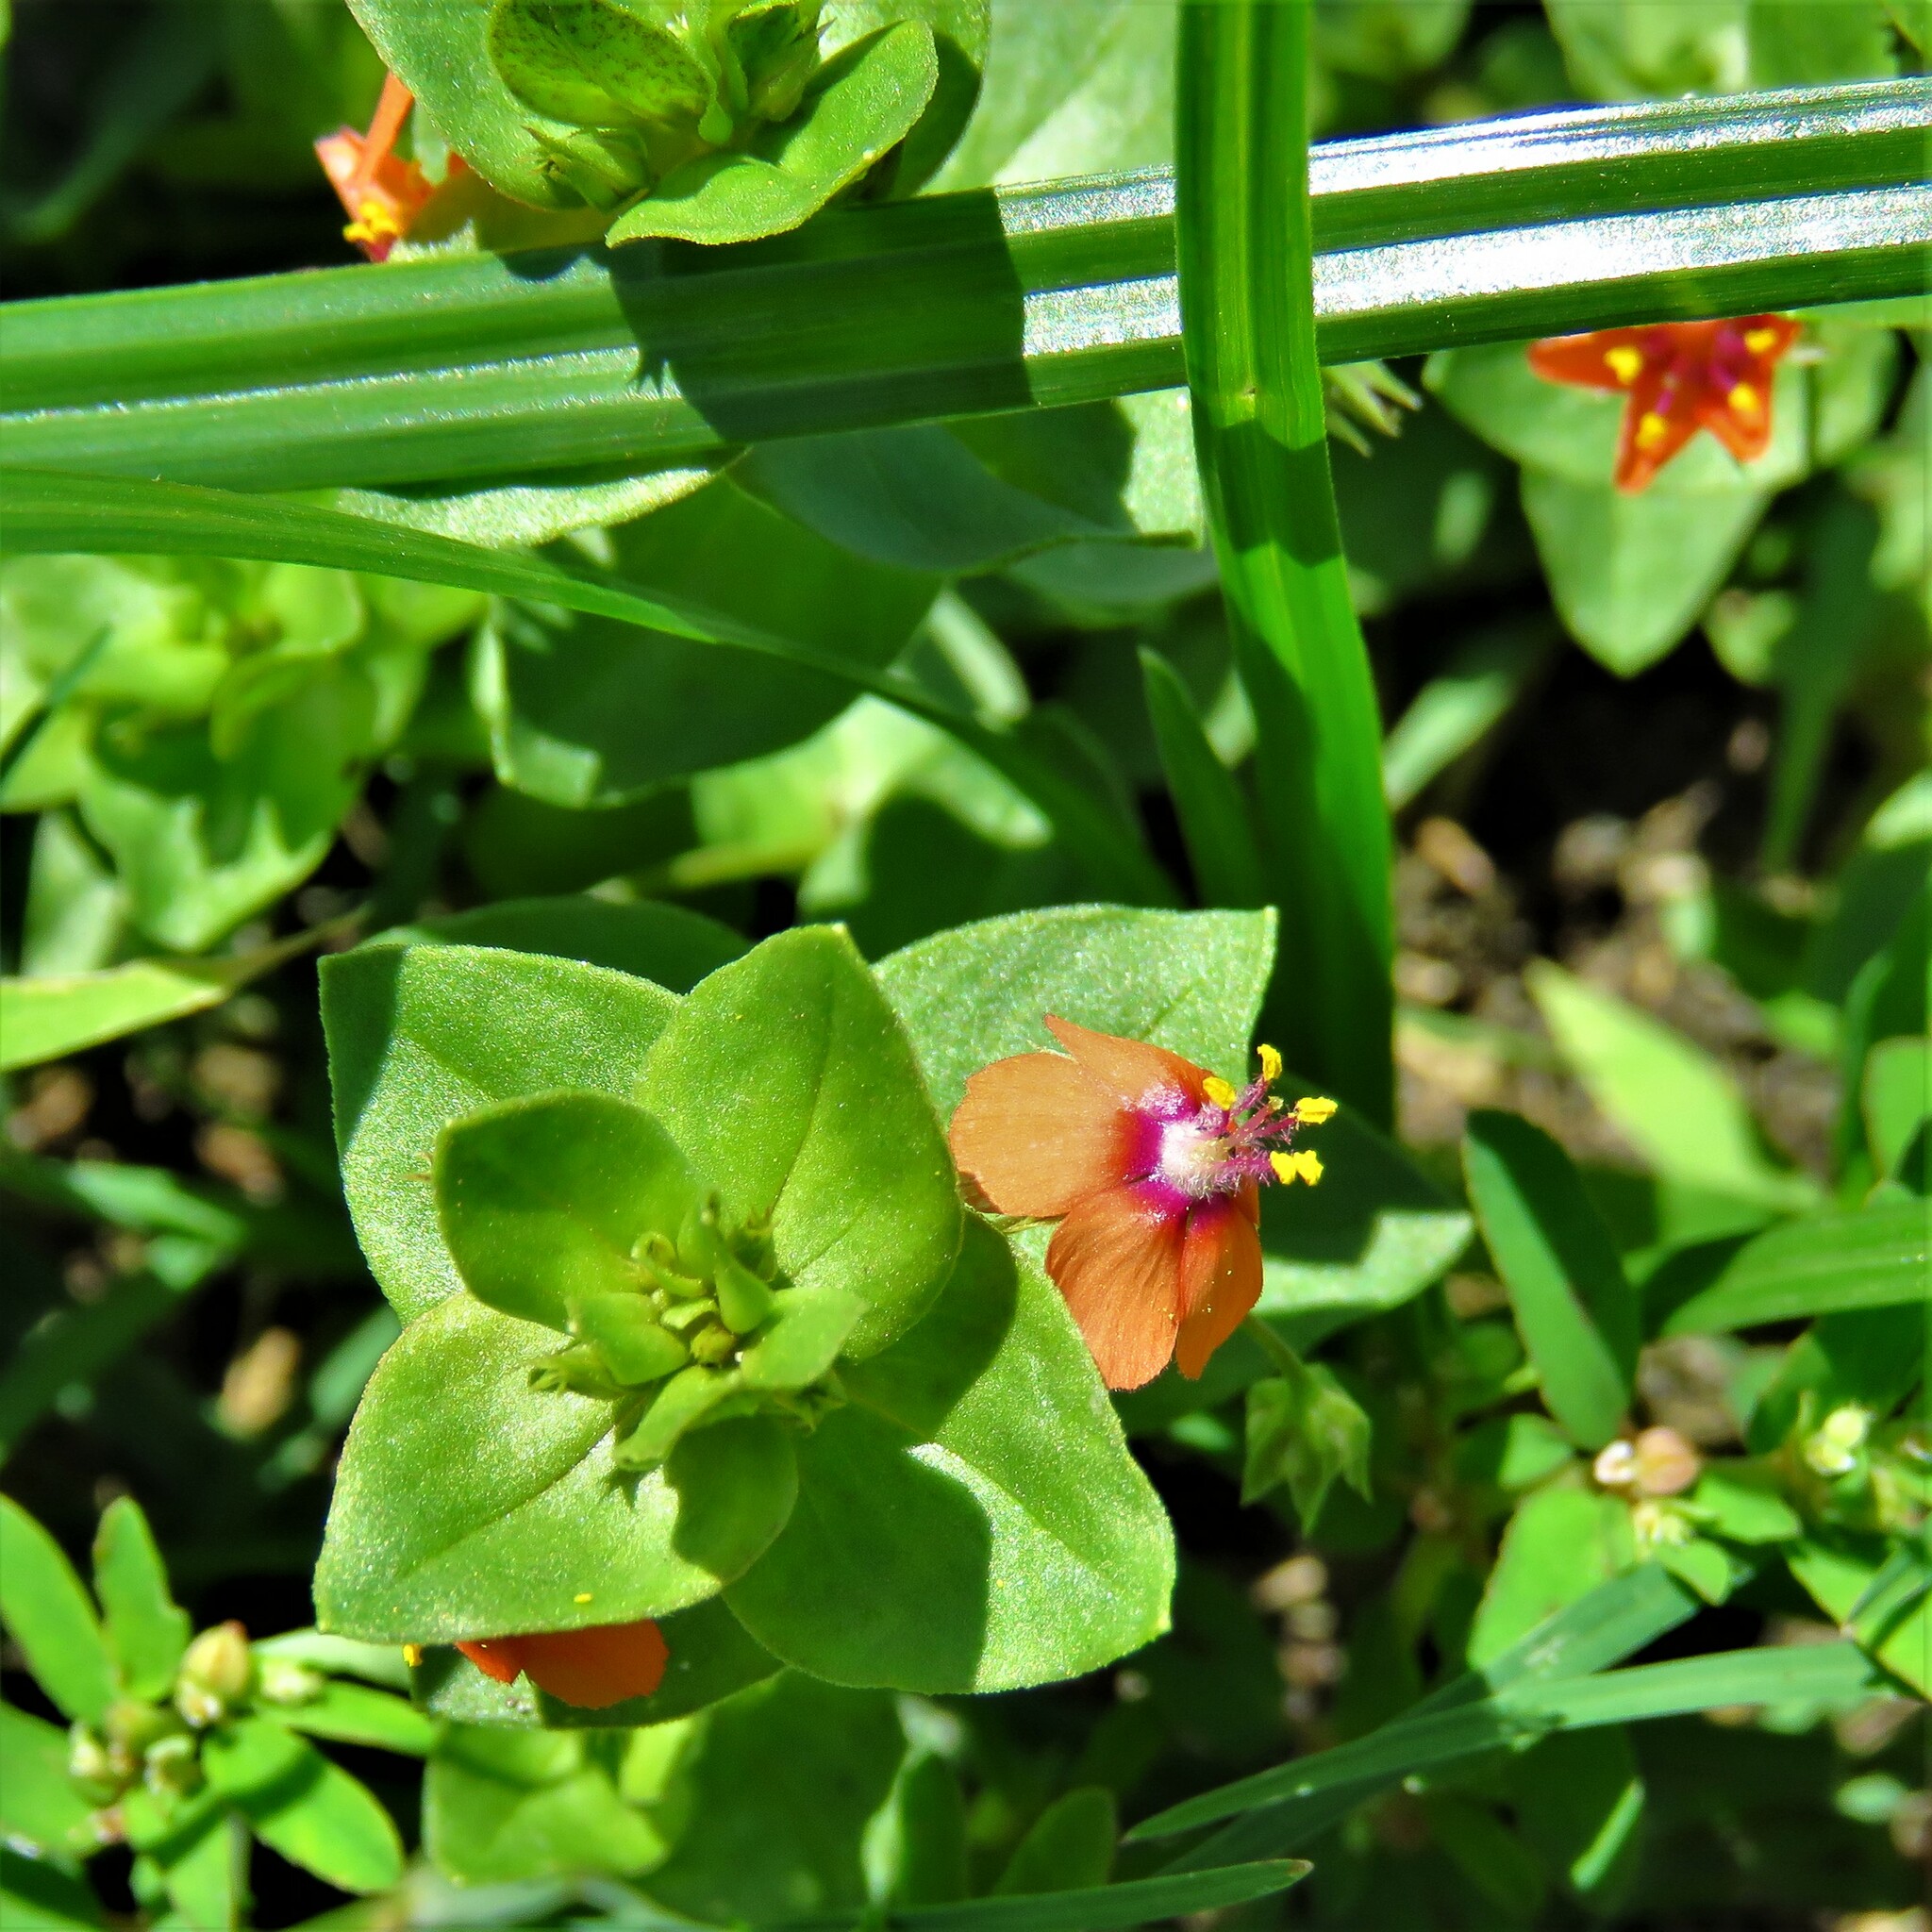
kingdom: Plantae
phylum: Tracheophyta
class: Magnoliopsida
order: Ericales
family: Primulaceae
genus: Lysimachia
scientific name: Lysimachia arvensis
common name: Scarlet pimpernel
